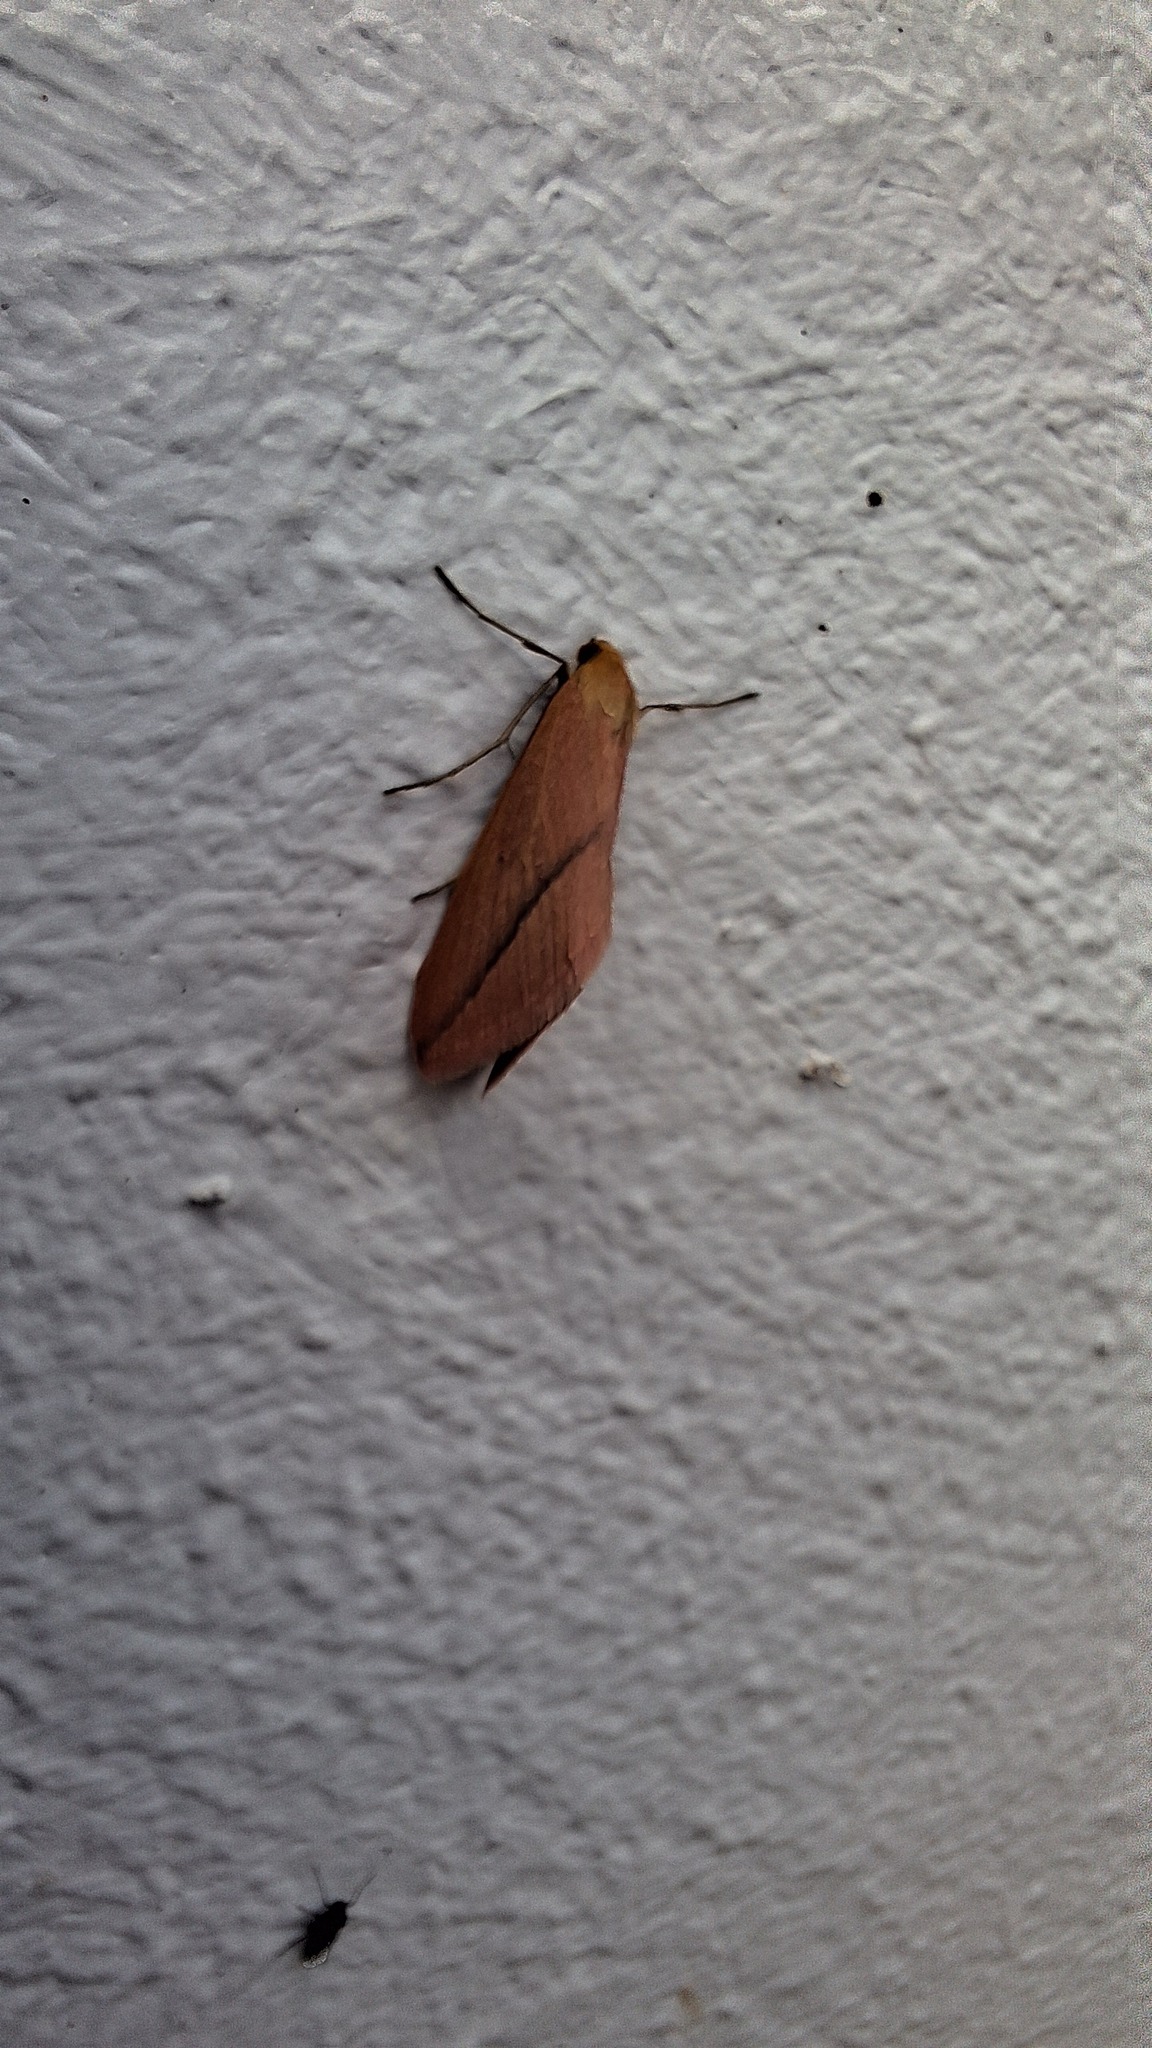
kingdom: Animalia
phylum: Arthropoda
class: Insecta
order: Lepidoptera
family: Geometridae
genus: Rhodometra
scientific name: Rhodometra sacraria
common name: Vestal
